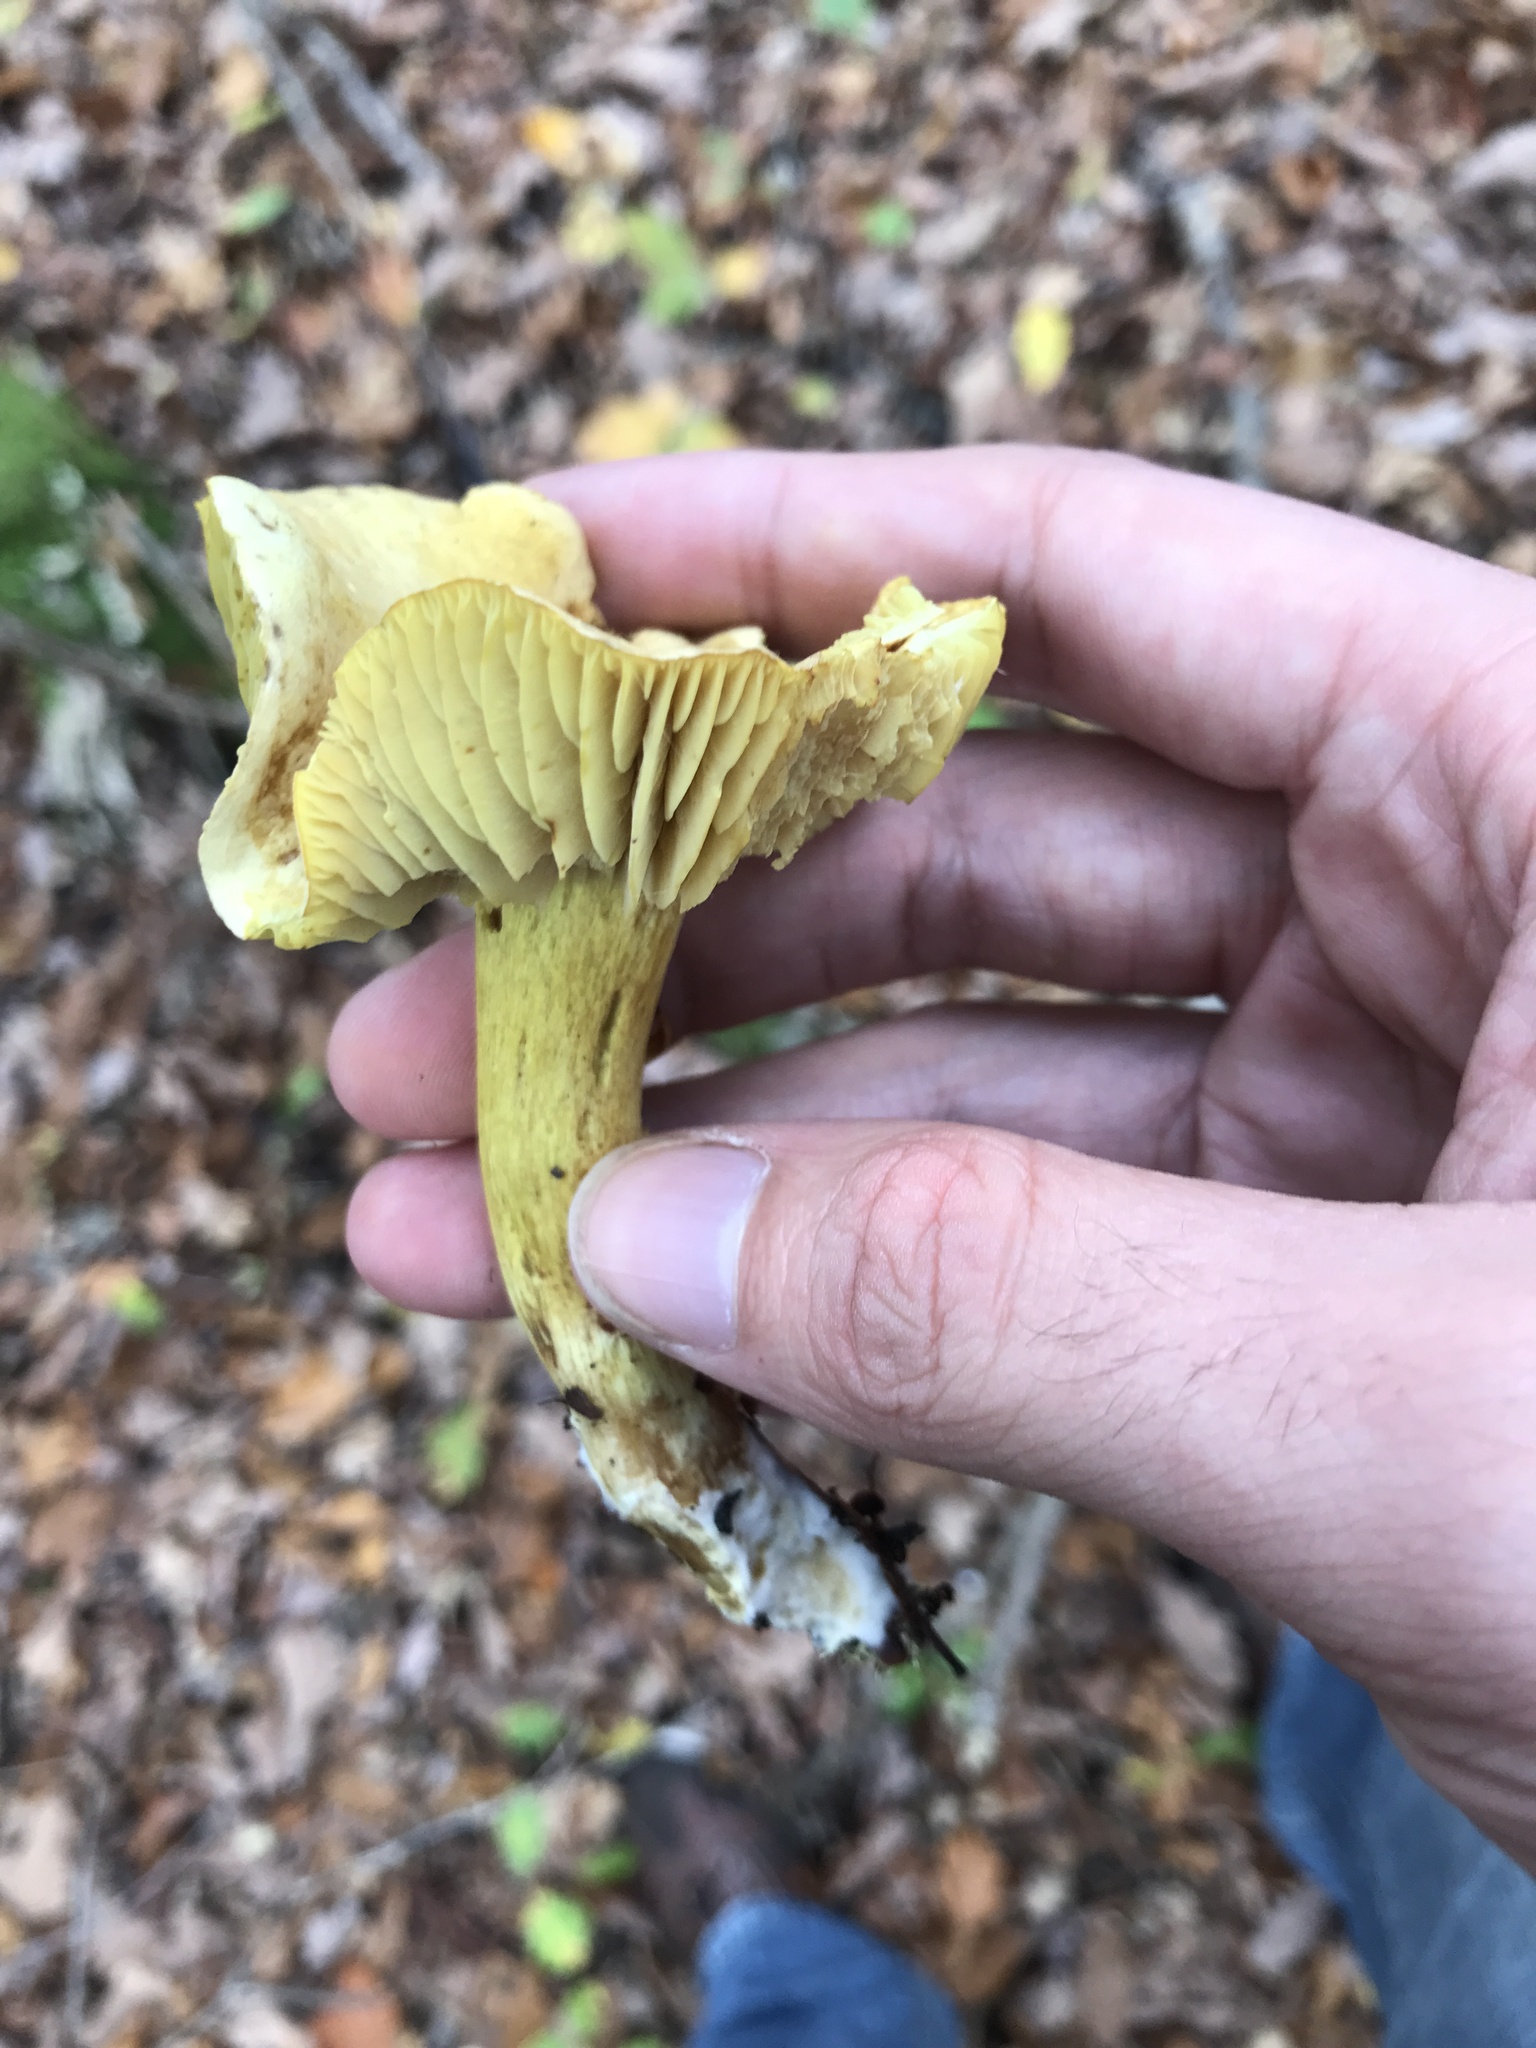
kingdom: Fungi
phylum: Basidiomycota
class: Agaricomycetes
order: Agaricales
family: Tricholomataceae
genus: Tricholoma
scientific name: Tricholoma sulphureum
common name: Stinky knight
